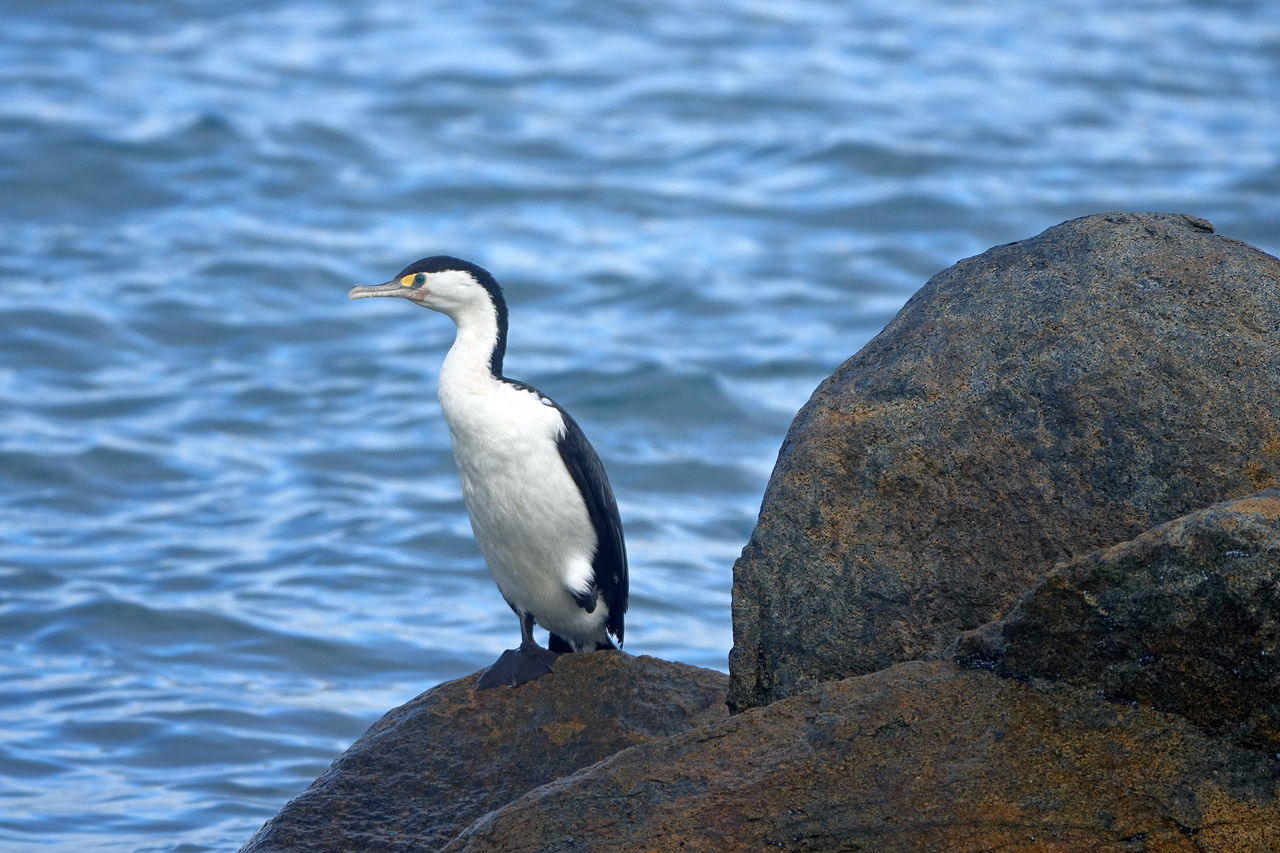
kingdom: Animalia
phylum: Chordata
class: Aves
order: Suliformes
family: Phalacrocoracidae
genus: Phalacrocorax
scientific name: Phalacrocorax varius
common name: Pied cormorant
